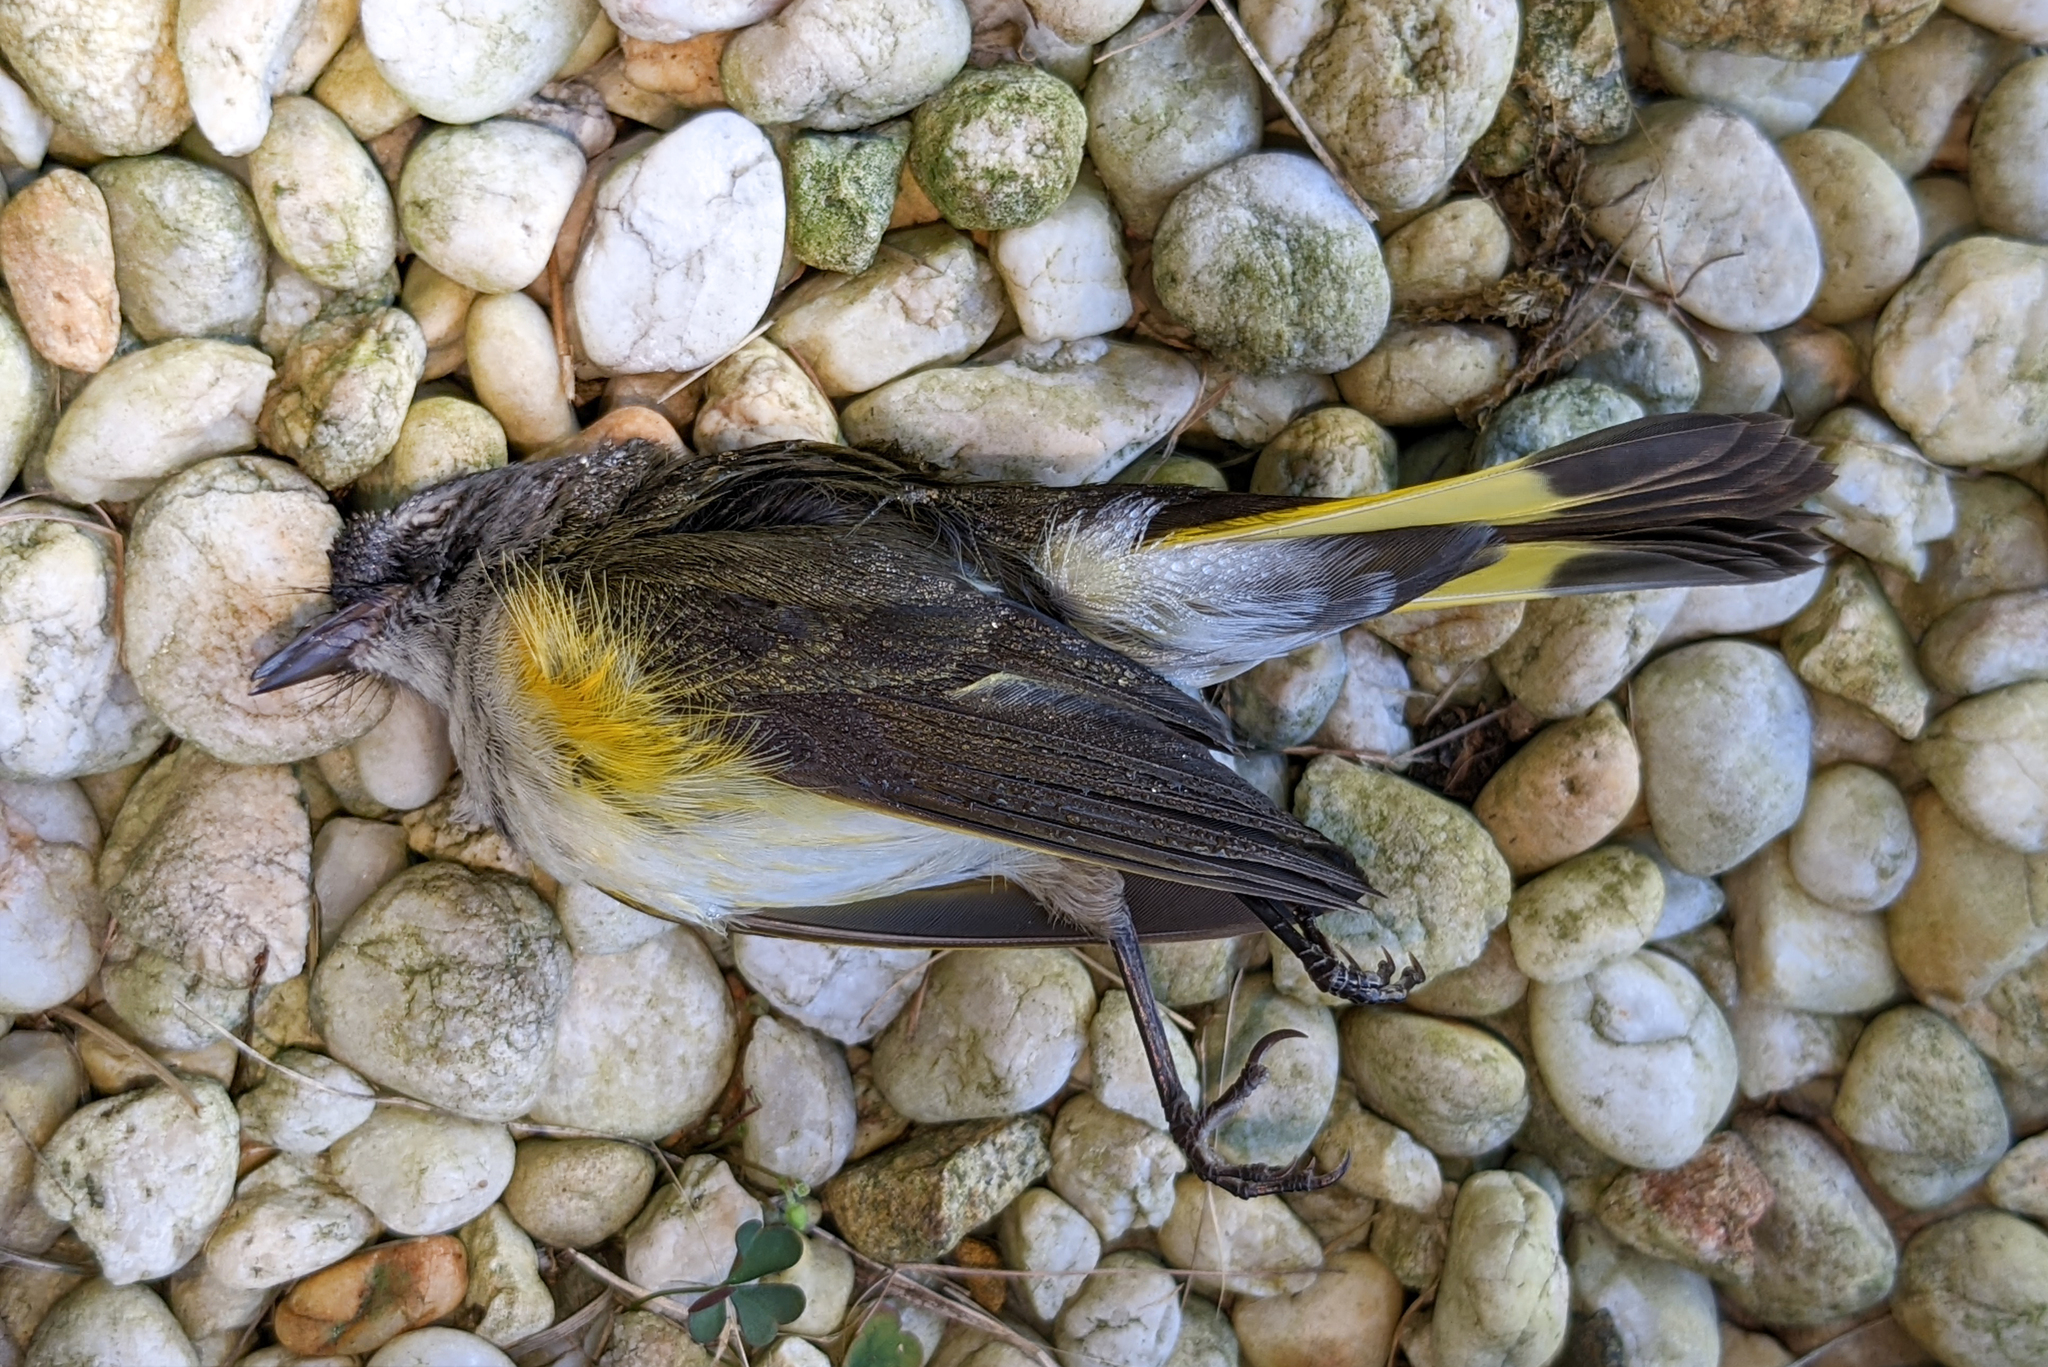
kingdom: Animalia
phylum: Chordata
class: Aves
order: Passeriformes
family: Parulidae
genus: Setophaga
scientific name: Setophaga ruticilla
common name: American redstart
